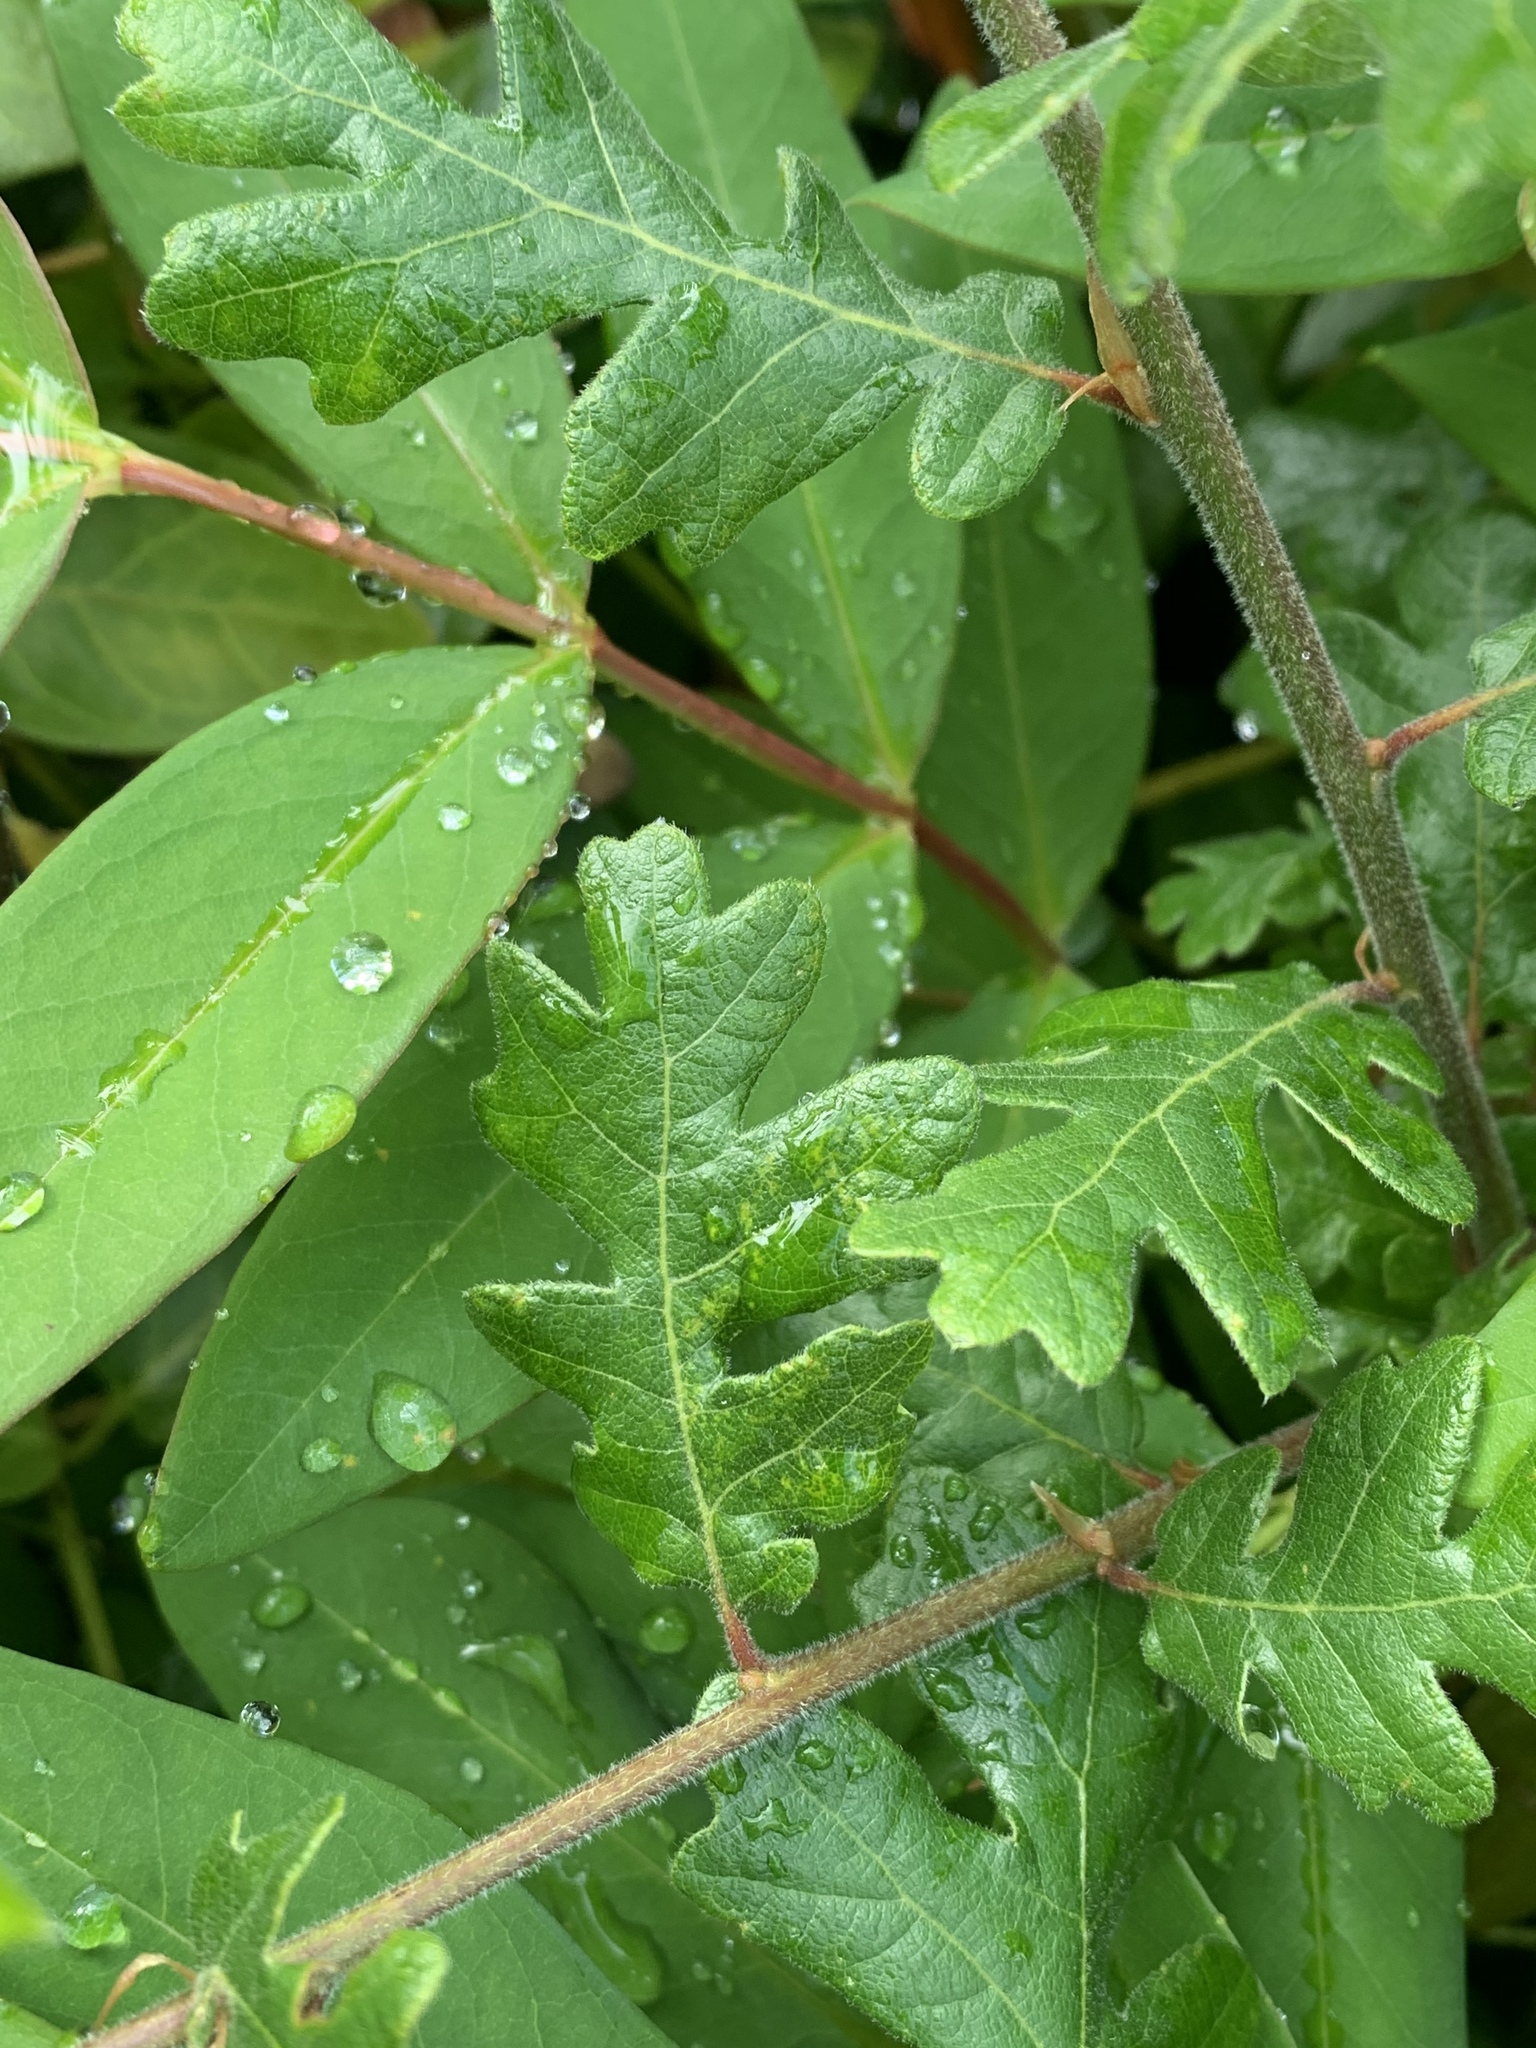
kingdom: Plantae
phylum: Tracheophyta
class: Magnoliopsida
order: Fagales
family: Fagaceae
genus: Quercus
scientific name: Quercus garryana
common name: Garry oak
